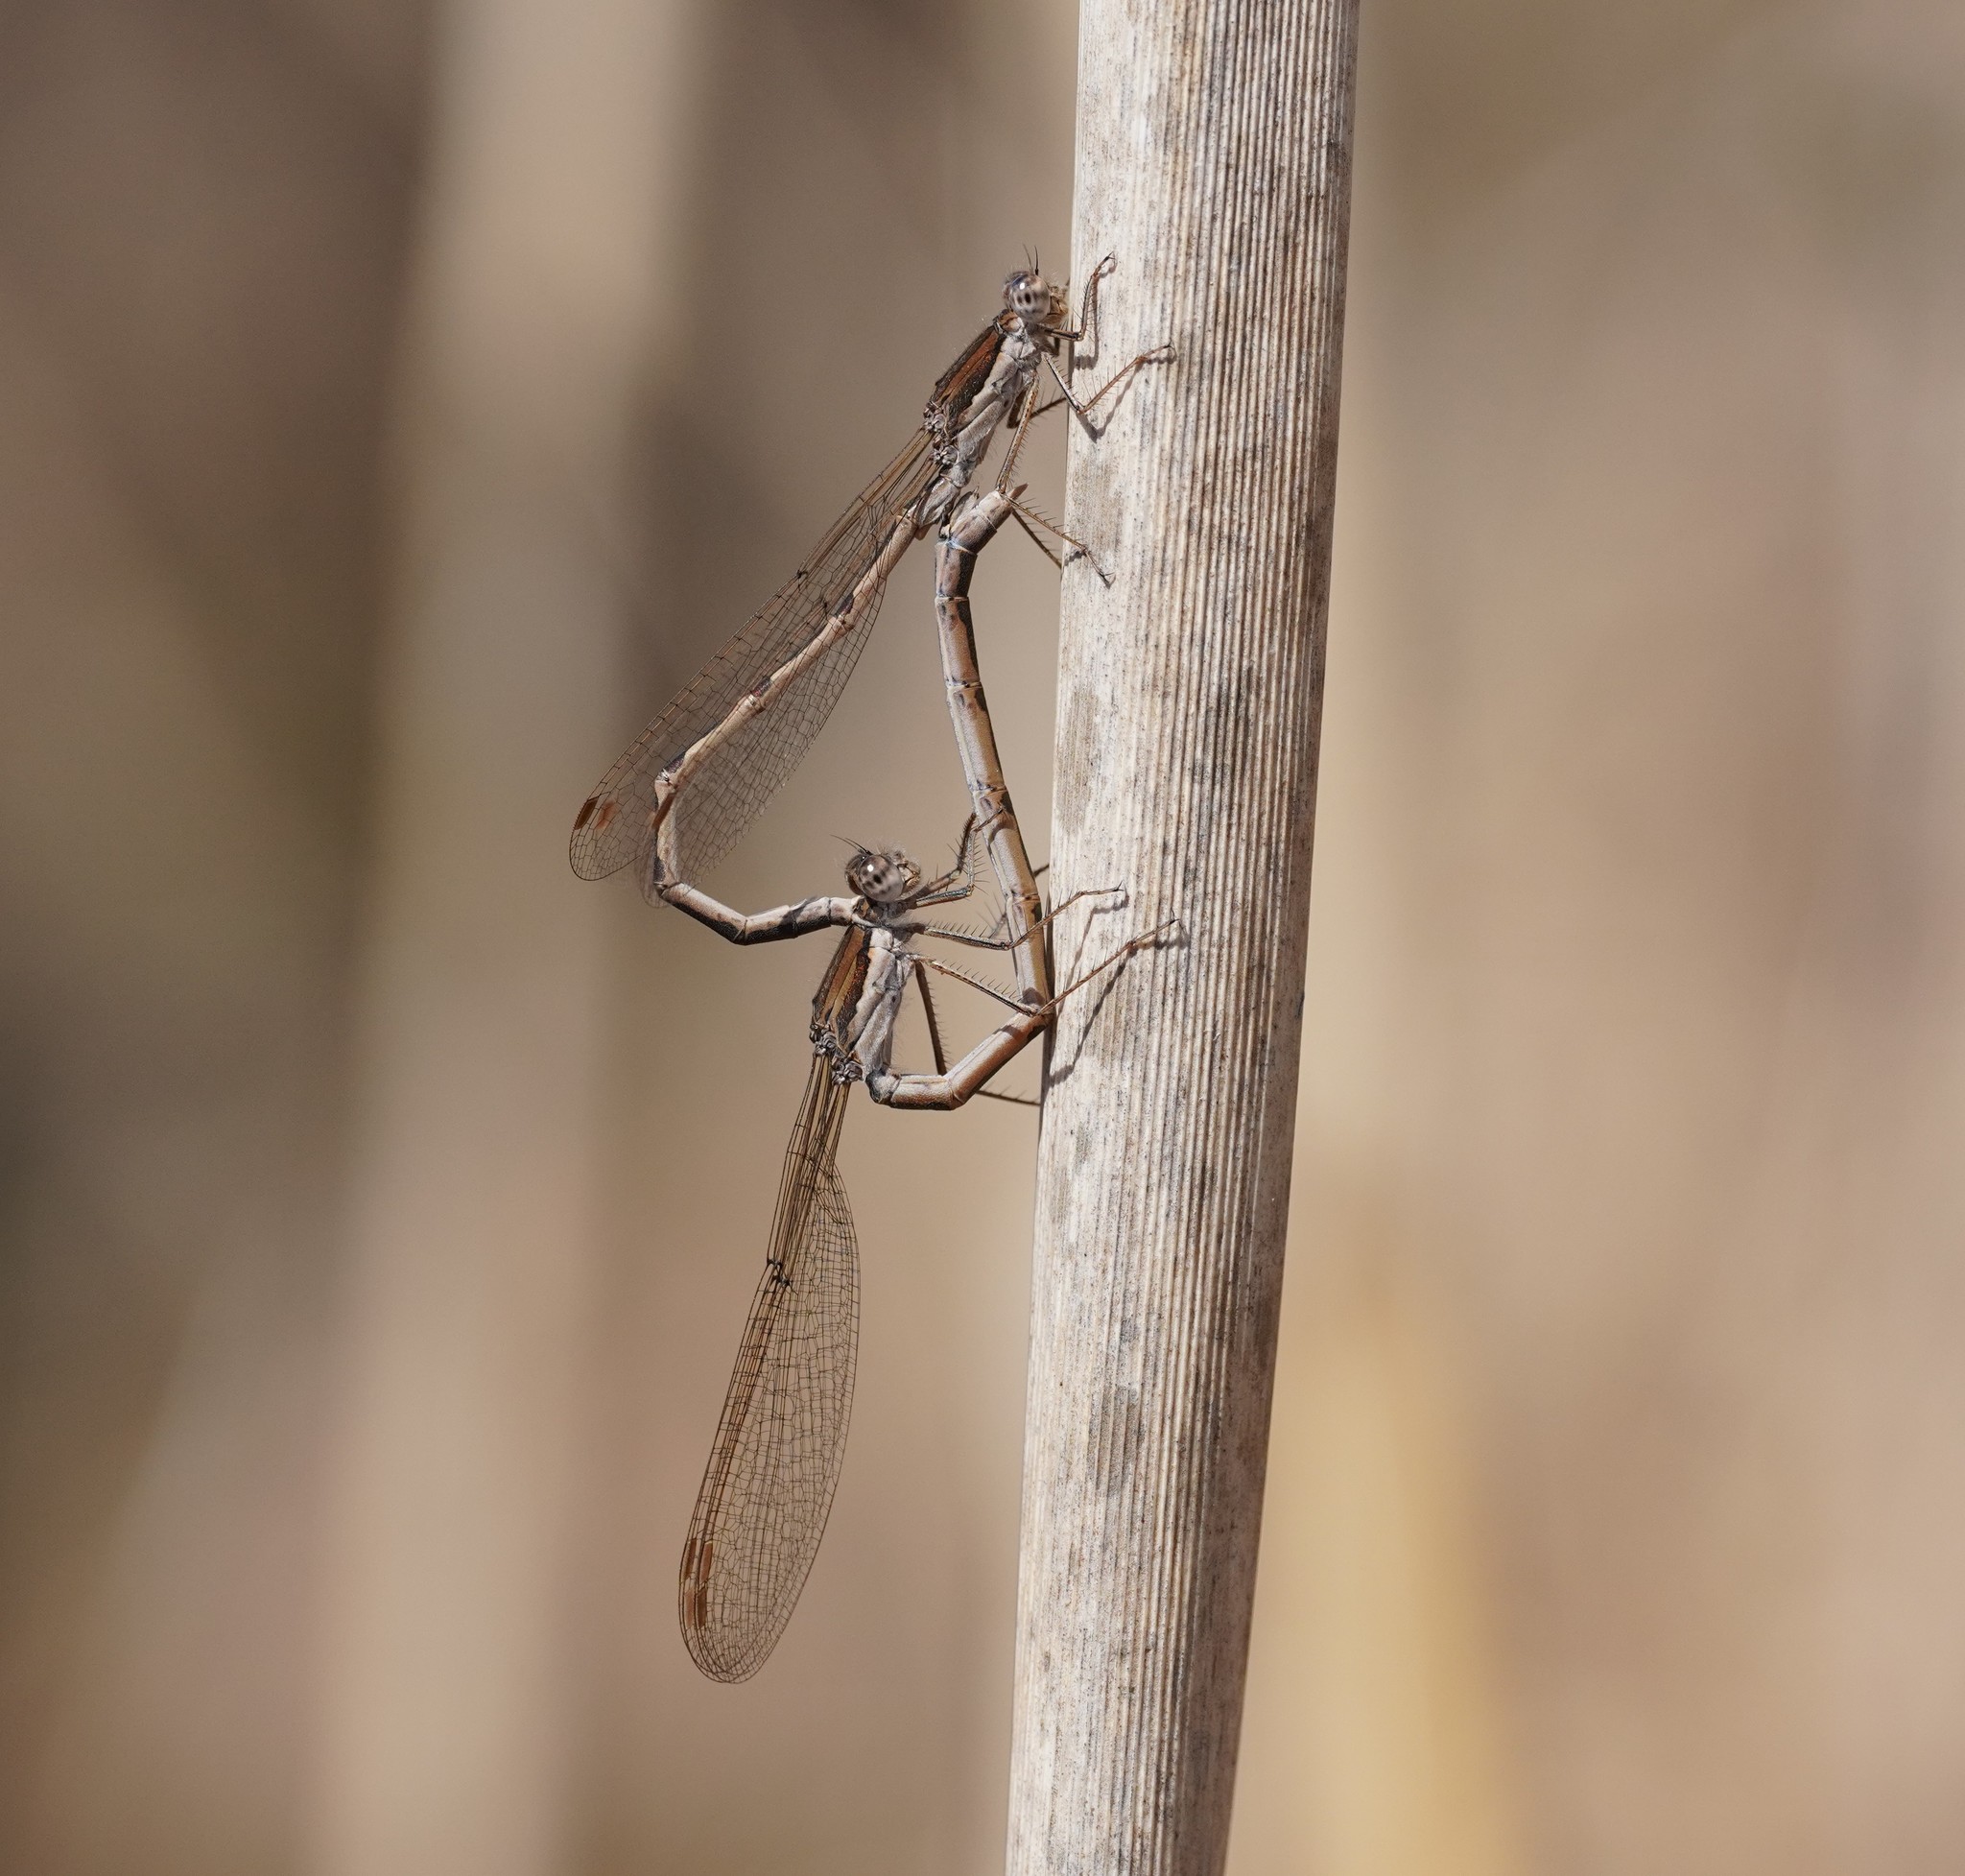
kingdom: Animalia
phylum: Arthropoda
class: Insecta
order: Odonata
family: Lestidae
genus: Sympecma
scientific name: Sympecma fusca
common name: Common winter damsel
